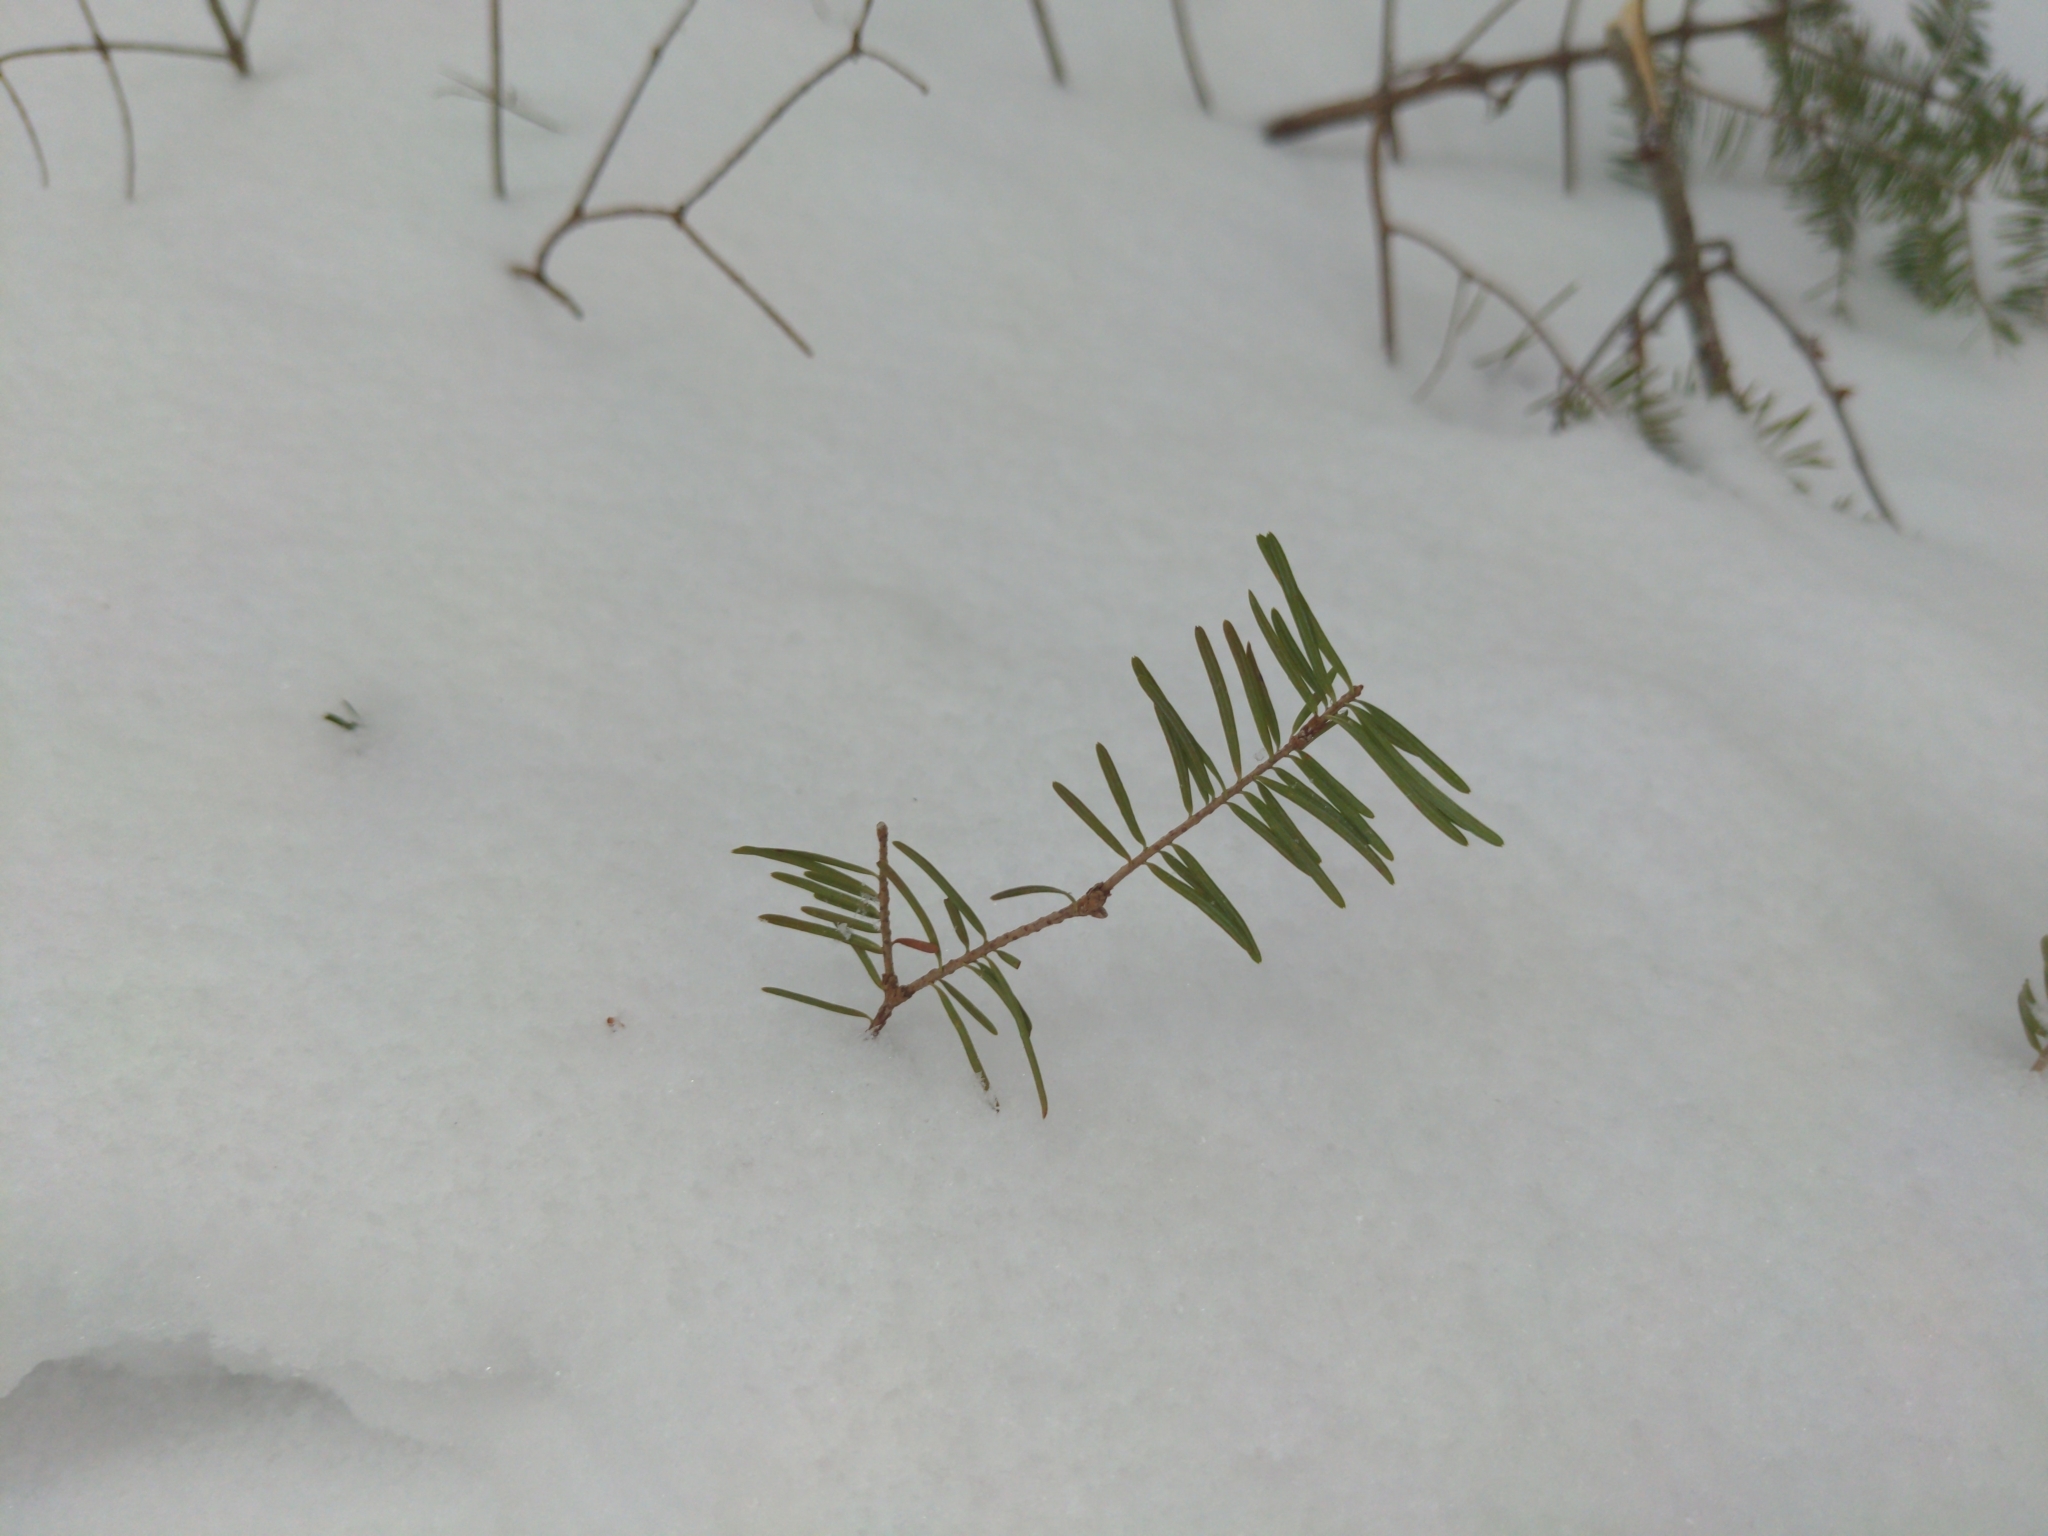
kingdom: Plantae
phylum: Tracheophyta
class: Pinopsida
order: Pinales
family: Pinaceae
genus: Abies
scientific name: Abies balsamea
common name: Balsam fir
